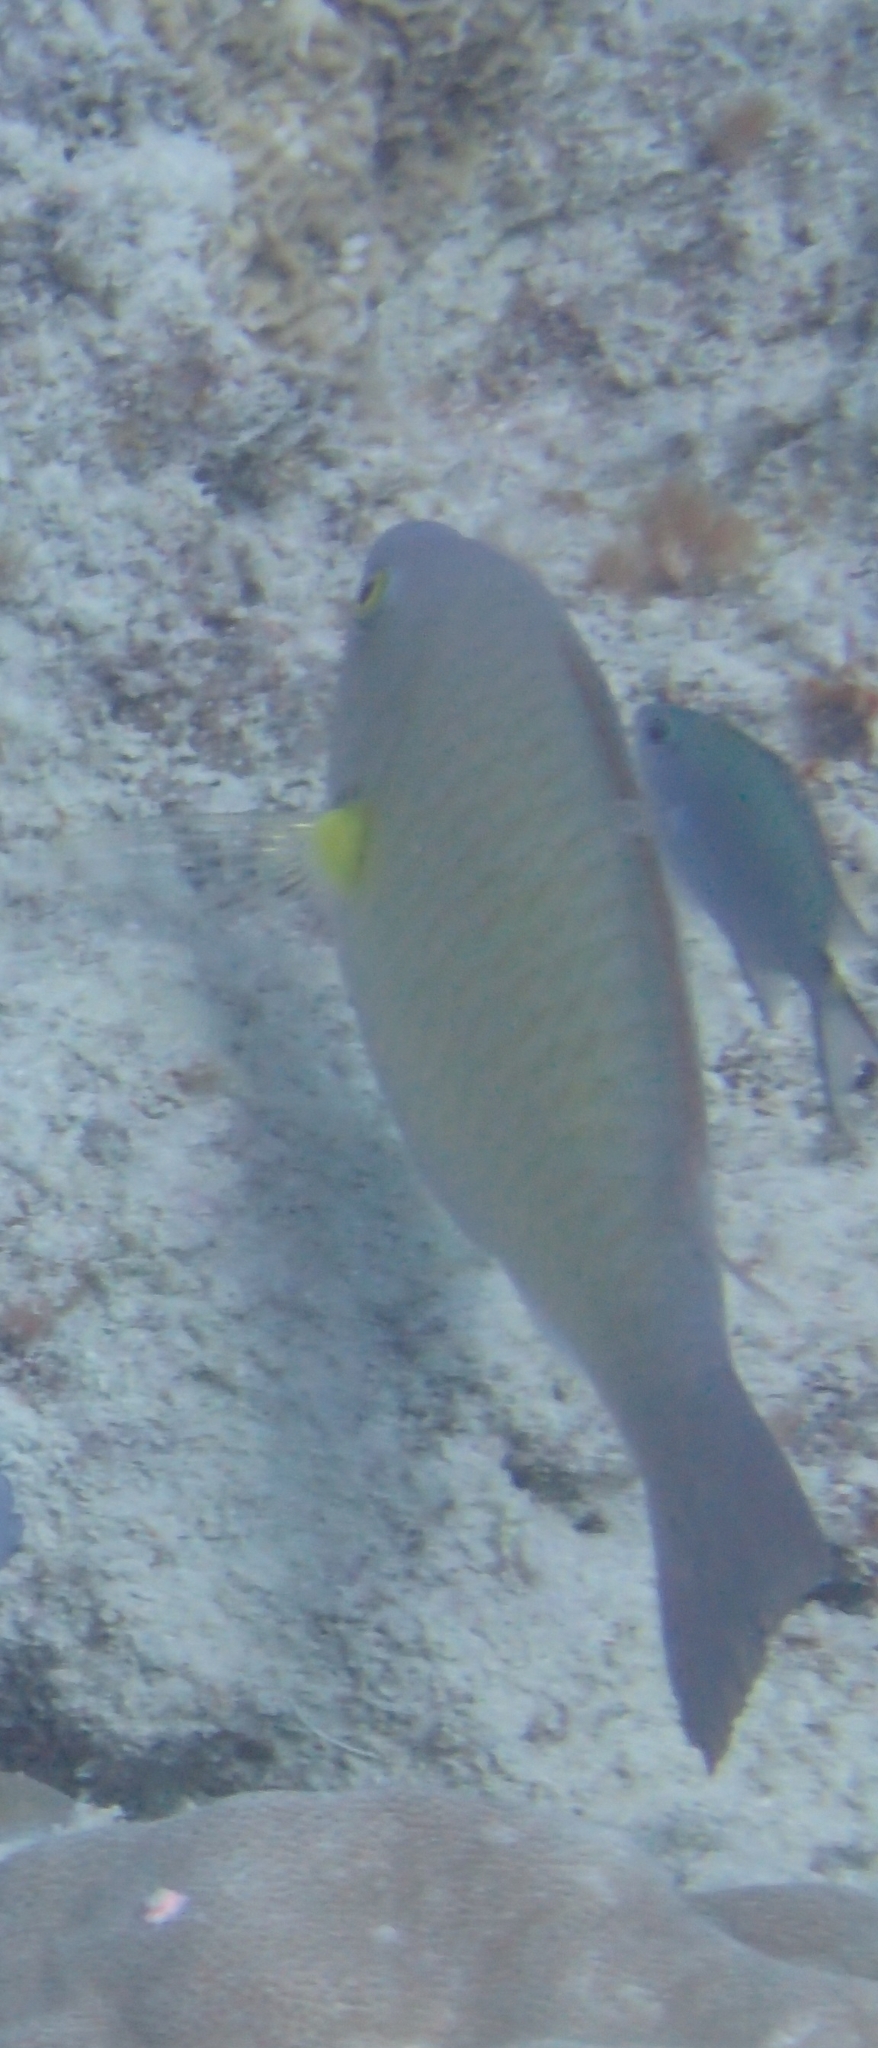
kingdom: Animalia
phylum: Chordata
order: Perciformes
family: Scaridae
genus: Scarus
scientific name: Scarus flavipectoralis
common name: Yellowfin parrotfish
